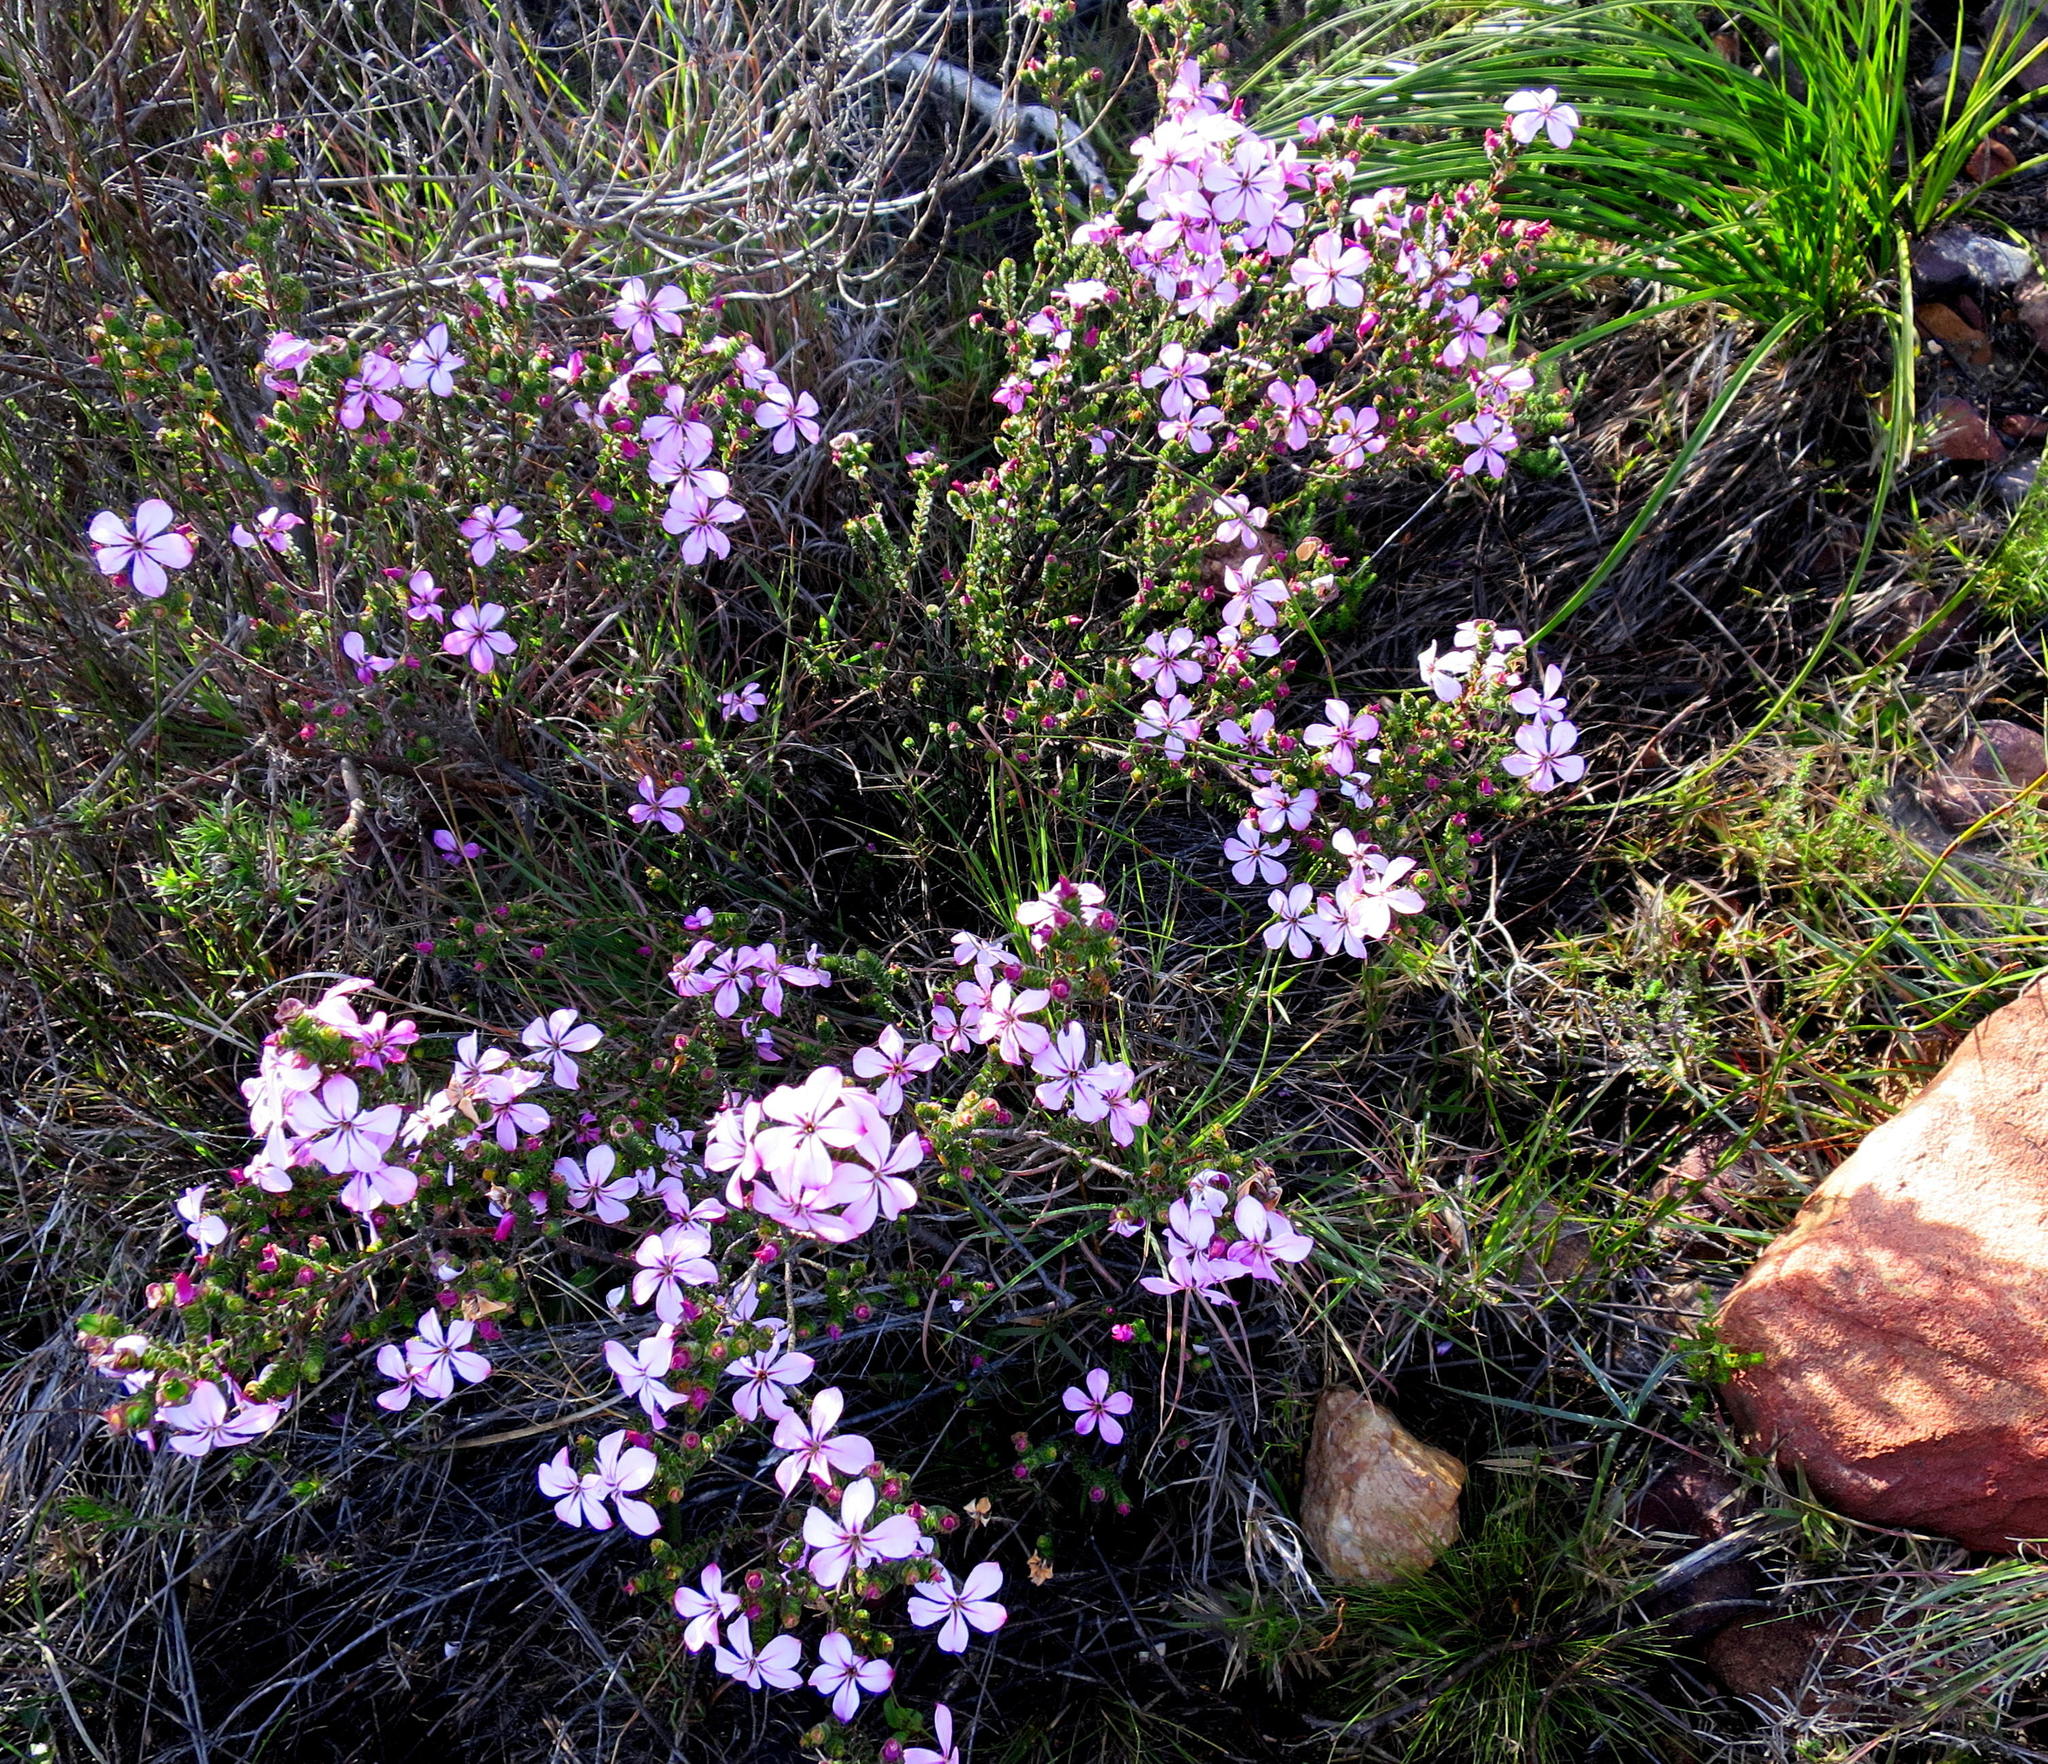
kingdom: Plantae
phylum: Tracheophyta
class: Magnoliopsida
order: Sapindales
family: Rutaceae
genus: Acmadenia
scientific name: Acmadenia tetragona
